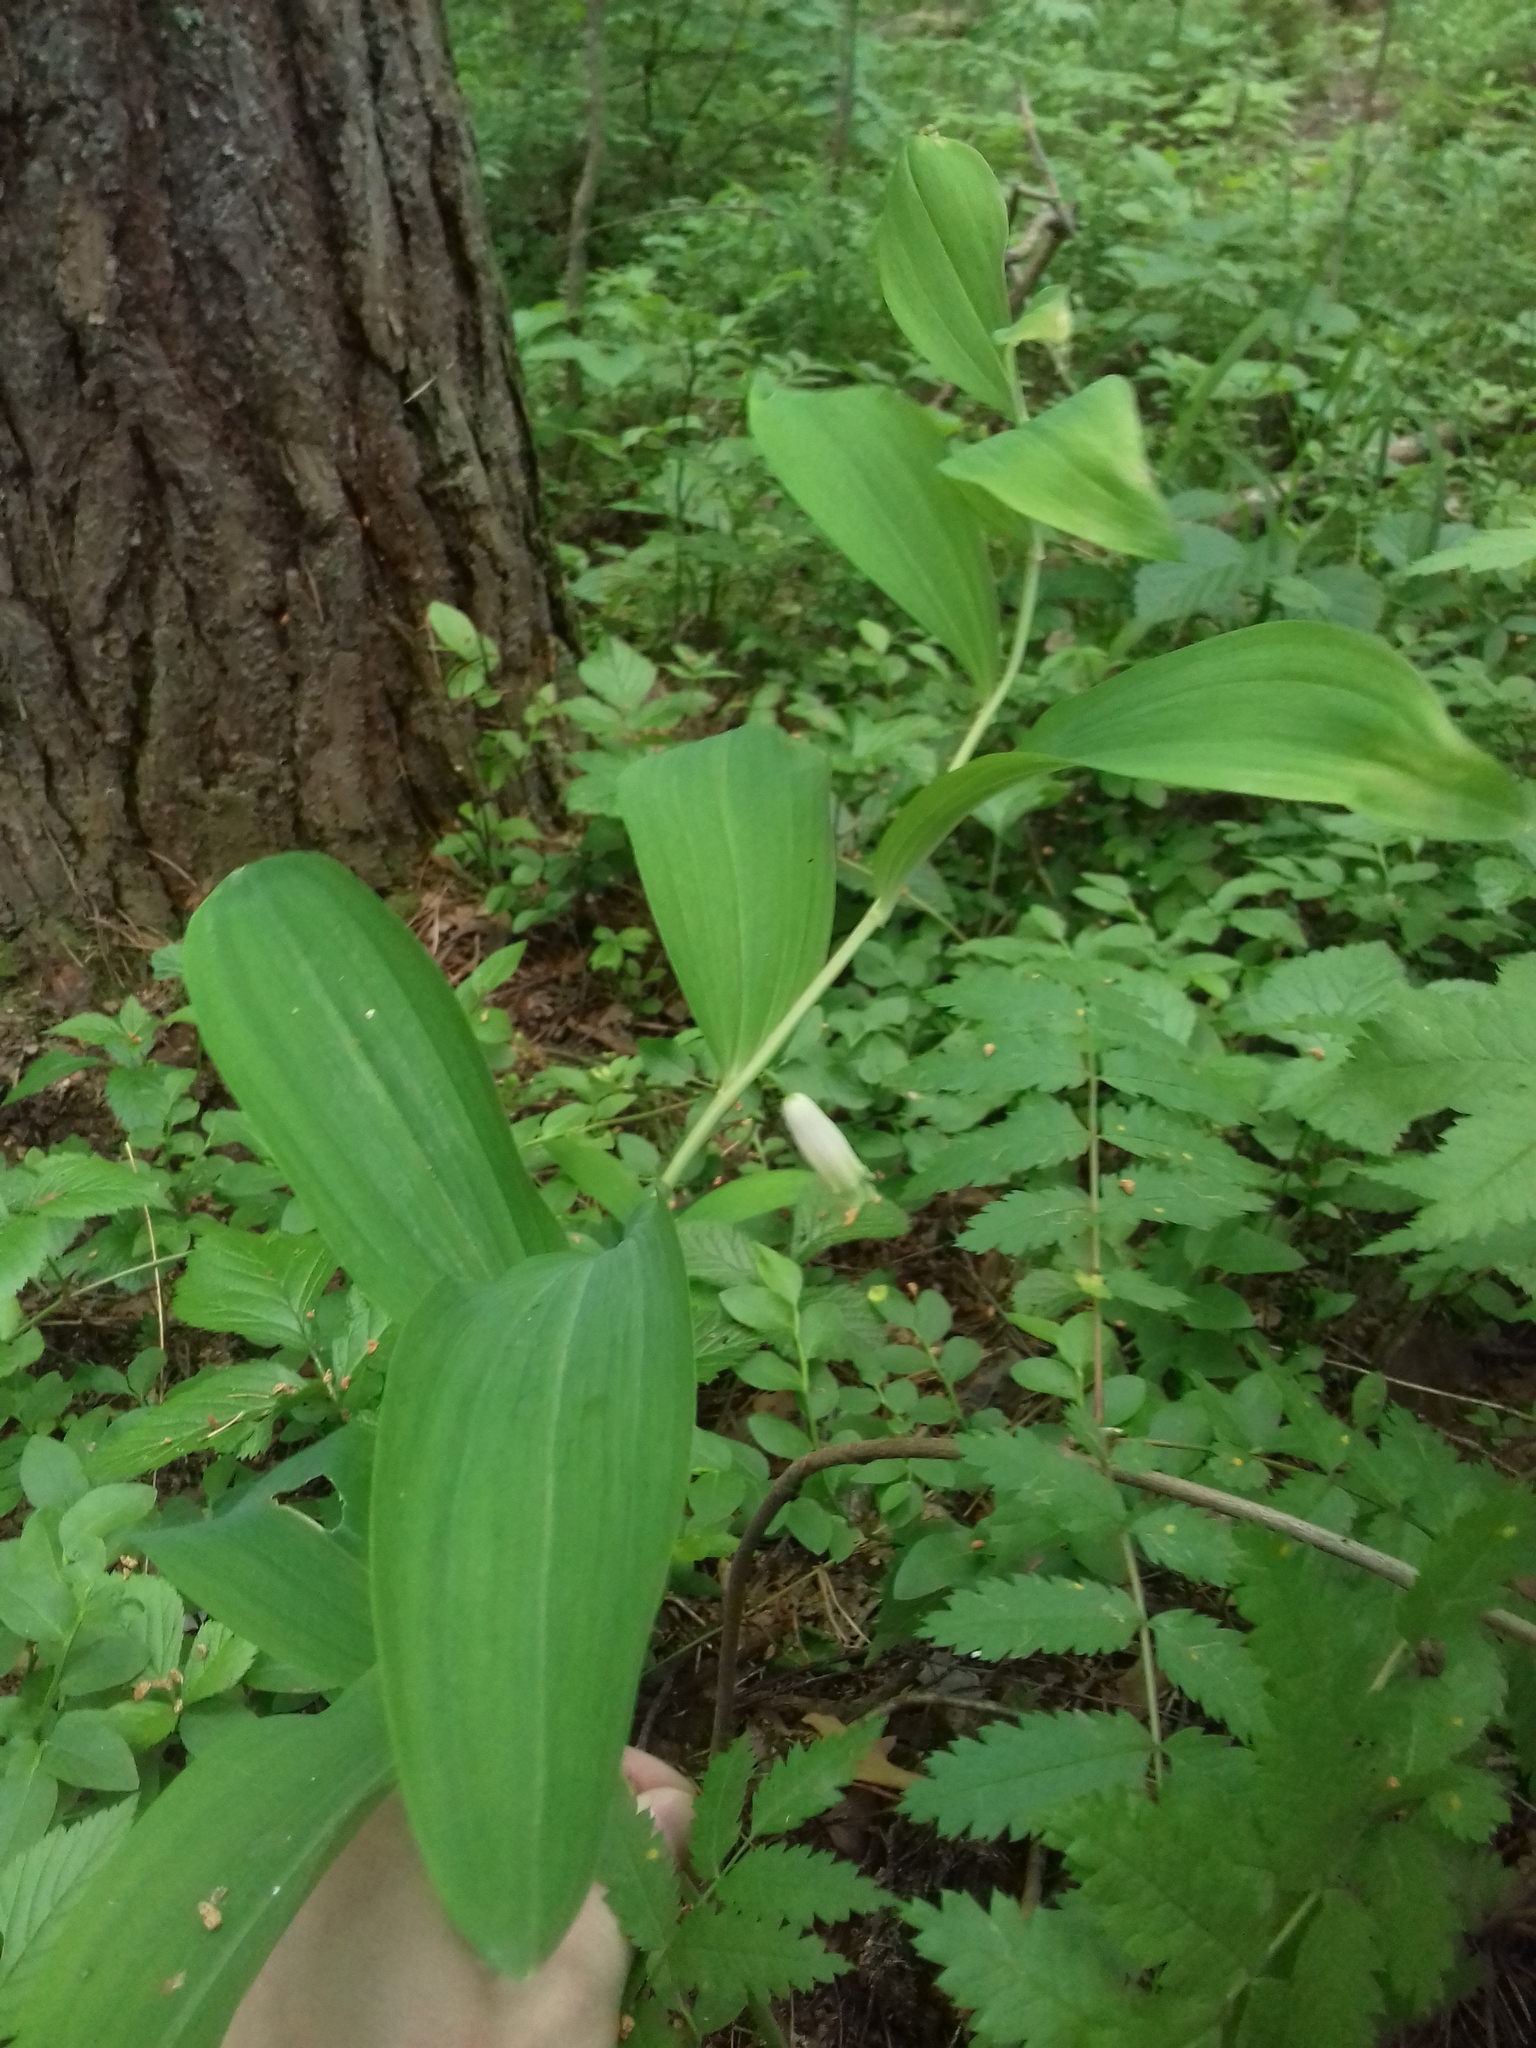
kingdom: Plantae
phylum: Tracheophyta
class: Liliopsida
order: Asparagales
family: Asparagaceae
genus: Polygonatum
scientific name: Polygonatum odoratum
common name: Angular solomon's-seal
